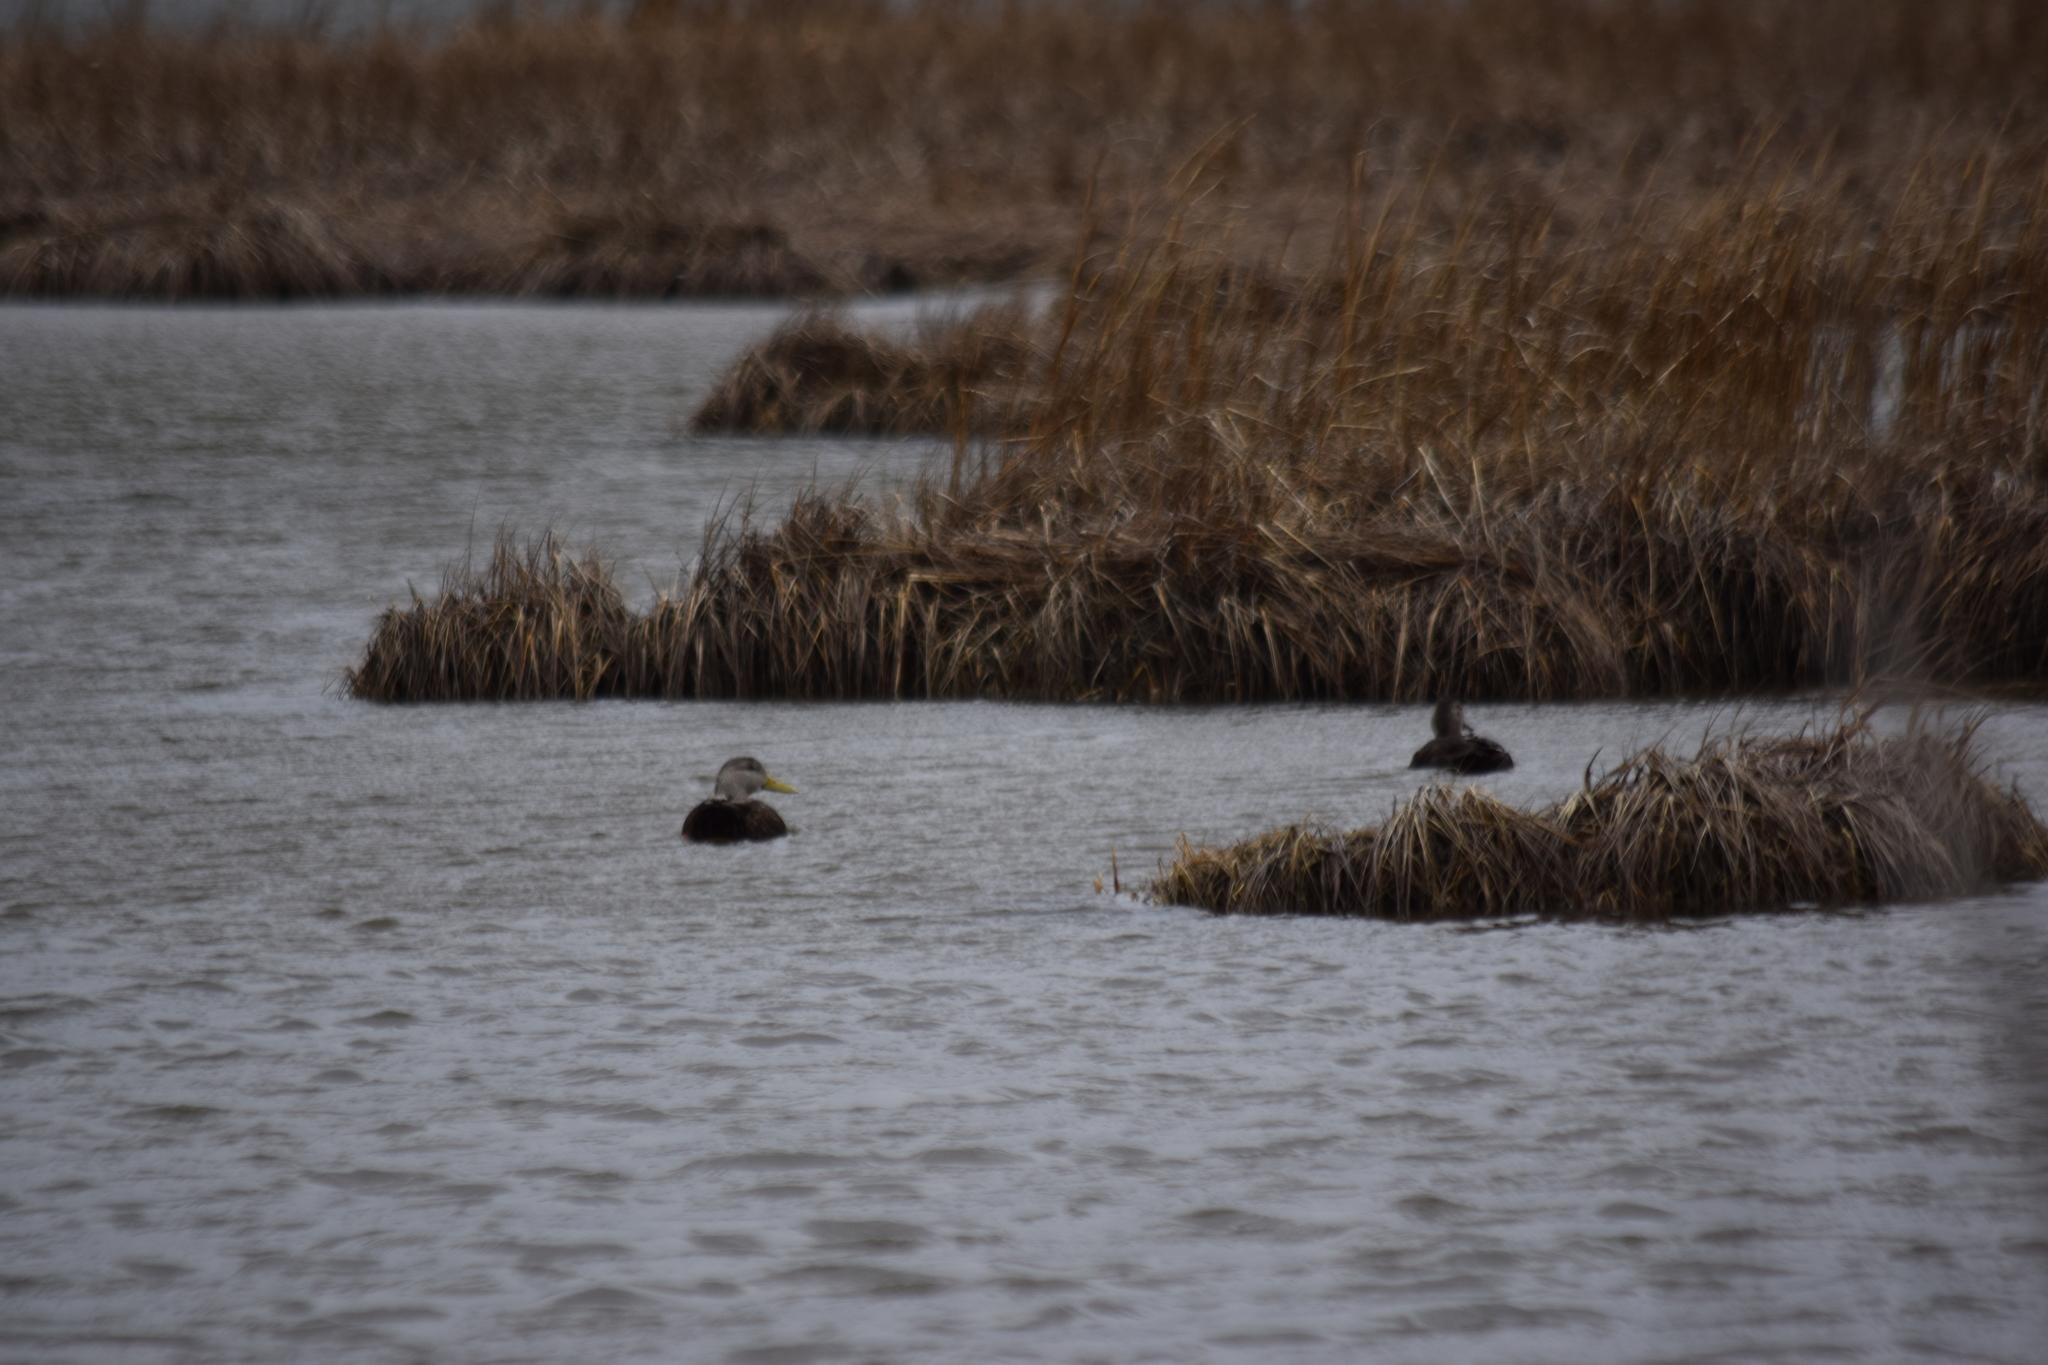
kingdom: Animalia
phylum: Chordata
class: Aves
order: Anseriformes
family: Anatidae
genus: Anas
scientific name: Anas rubripes
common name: American black duck
